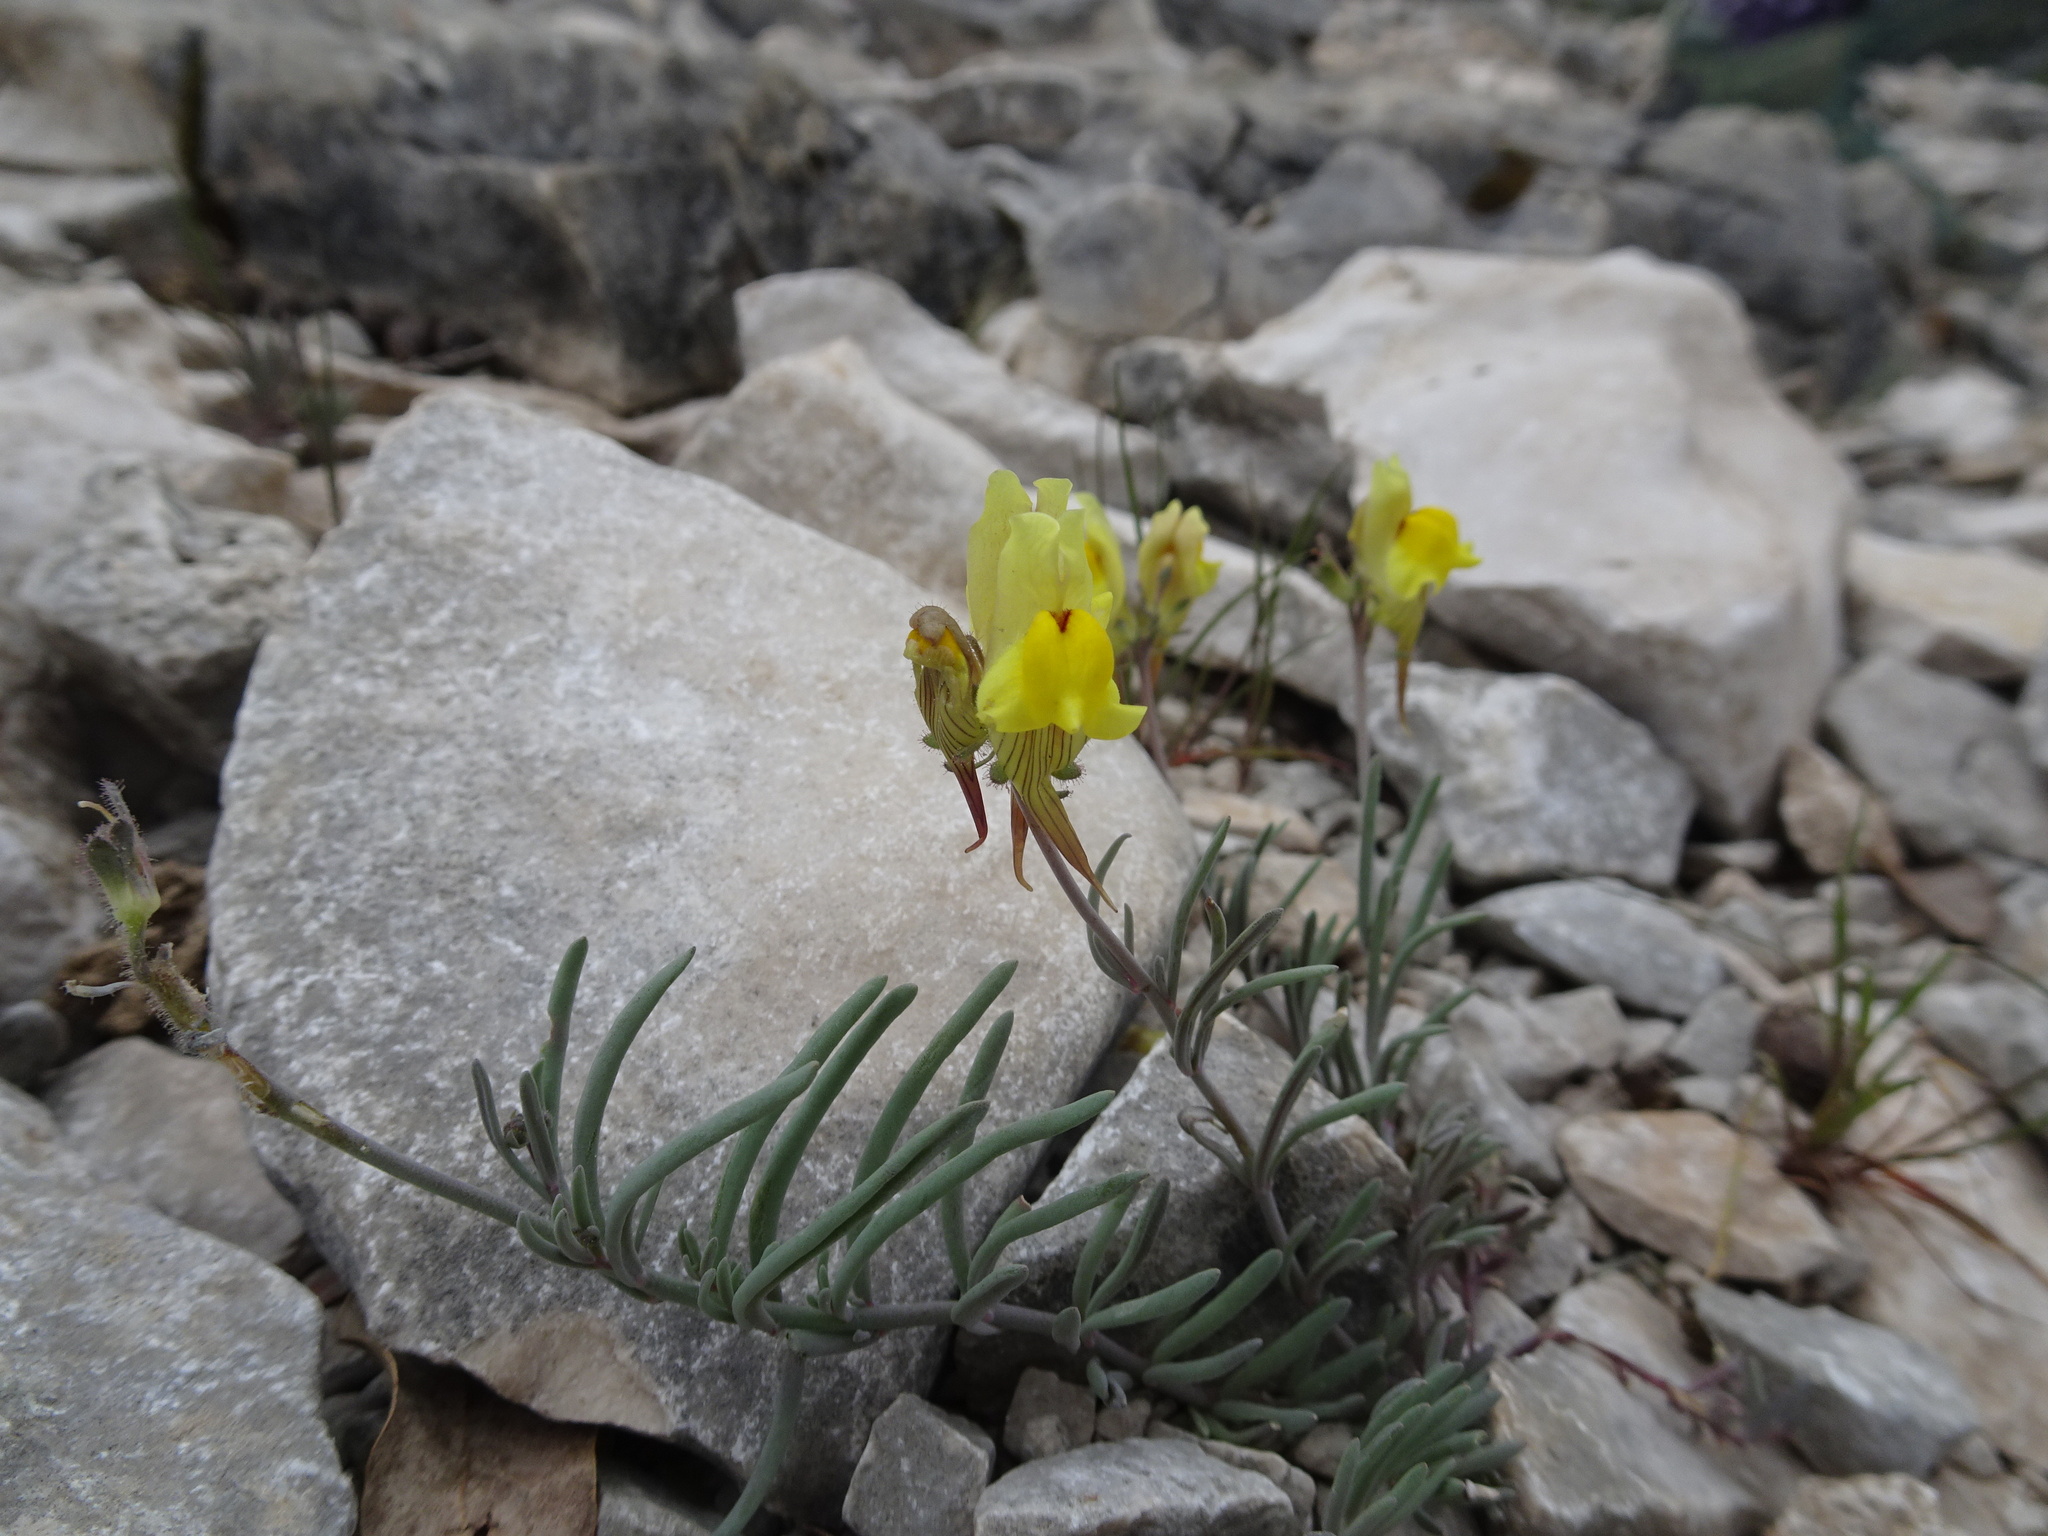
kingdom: Plantae
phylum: Tracheophyta
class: Magnoliopsida
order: Lamiales
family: Plantaginaceae
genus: Linaria
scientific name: Linaria supina
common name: Prostrate toadflax
